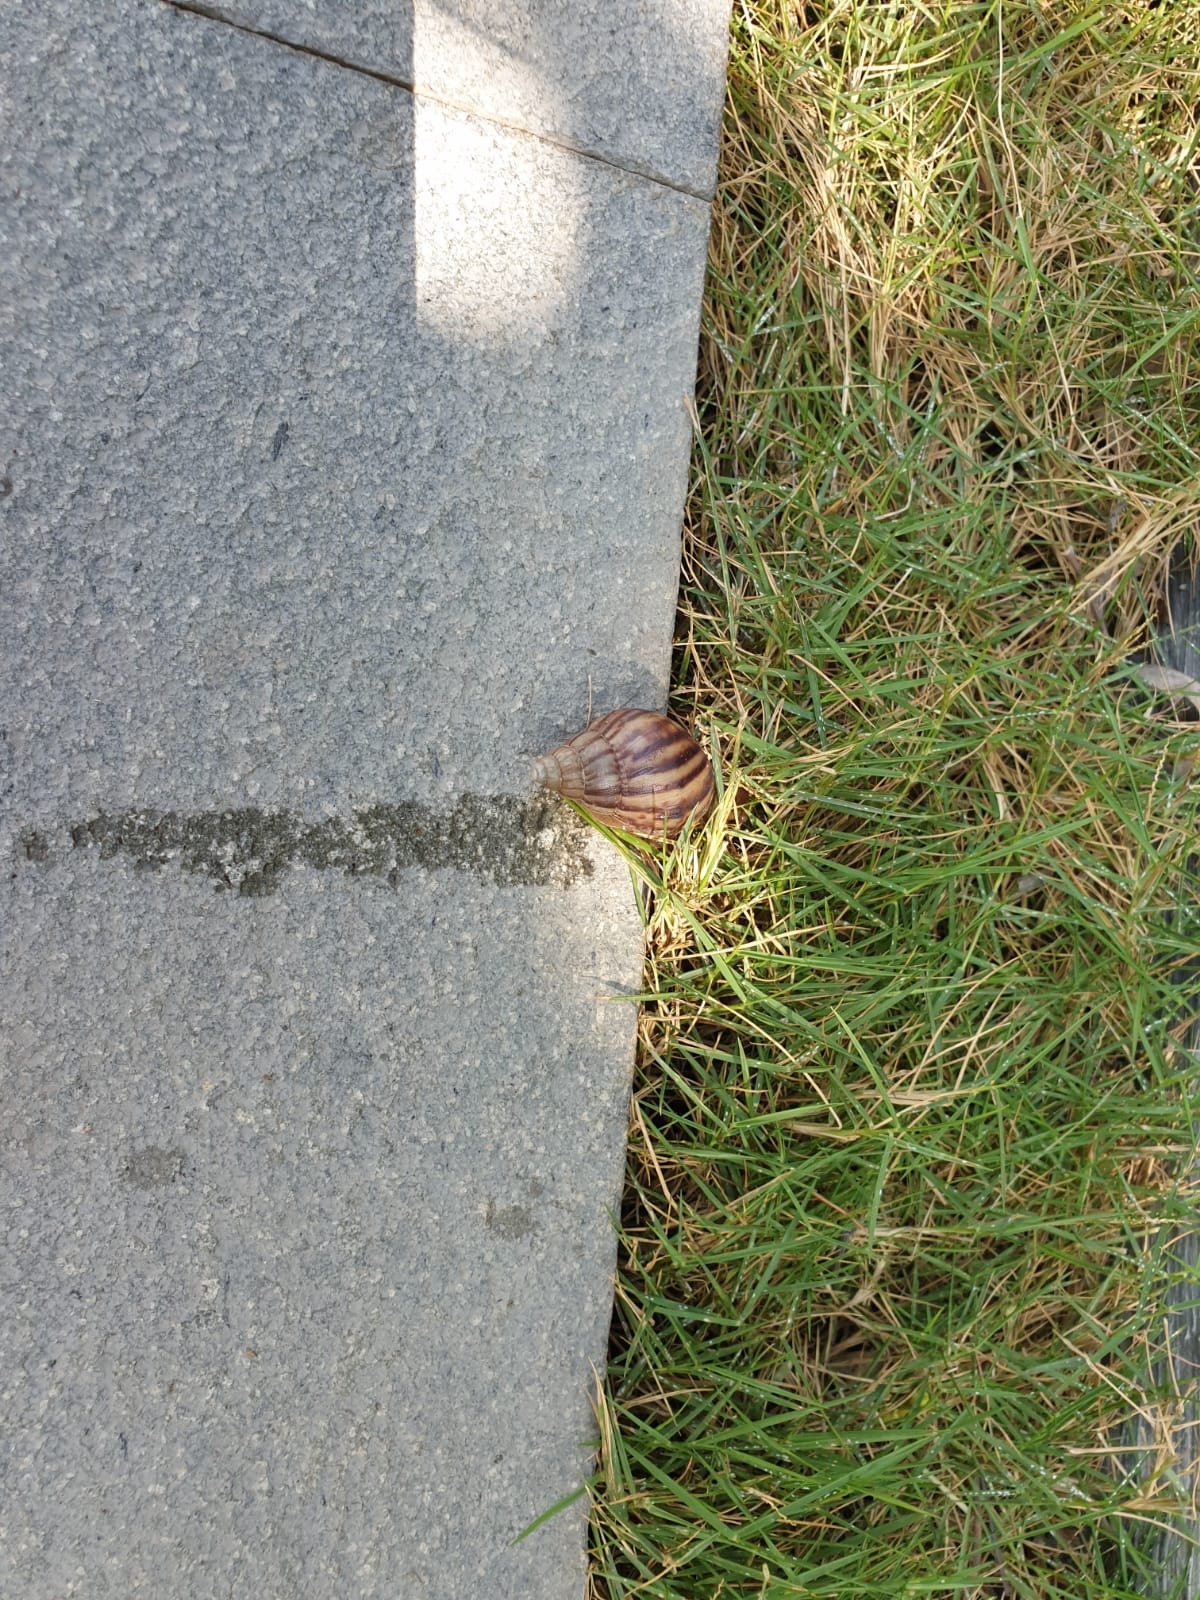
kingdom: Animalia
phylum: Mollusca
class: Gastropoda
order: Stylommatophora
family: Achatinidae
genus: Lissachatina
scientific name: Lissachatina fulica
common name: Giant african snail
